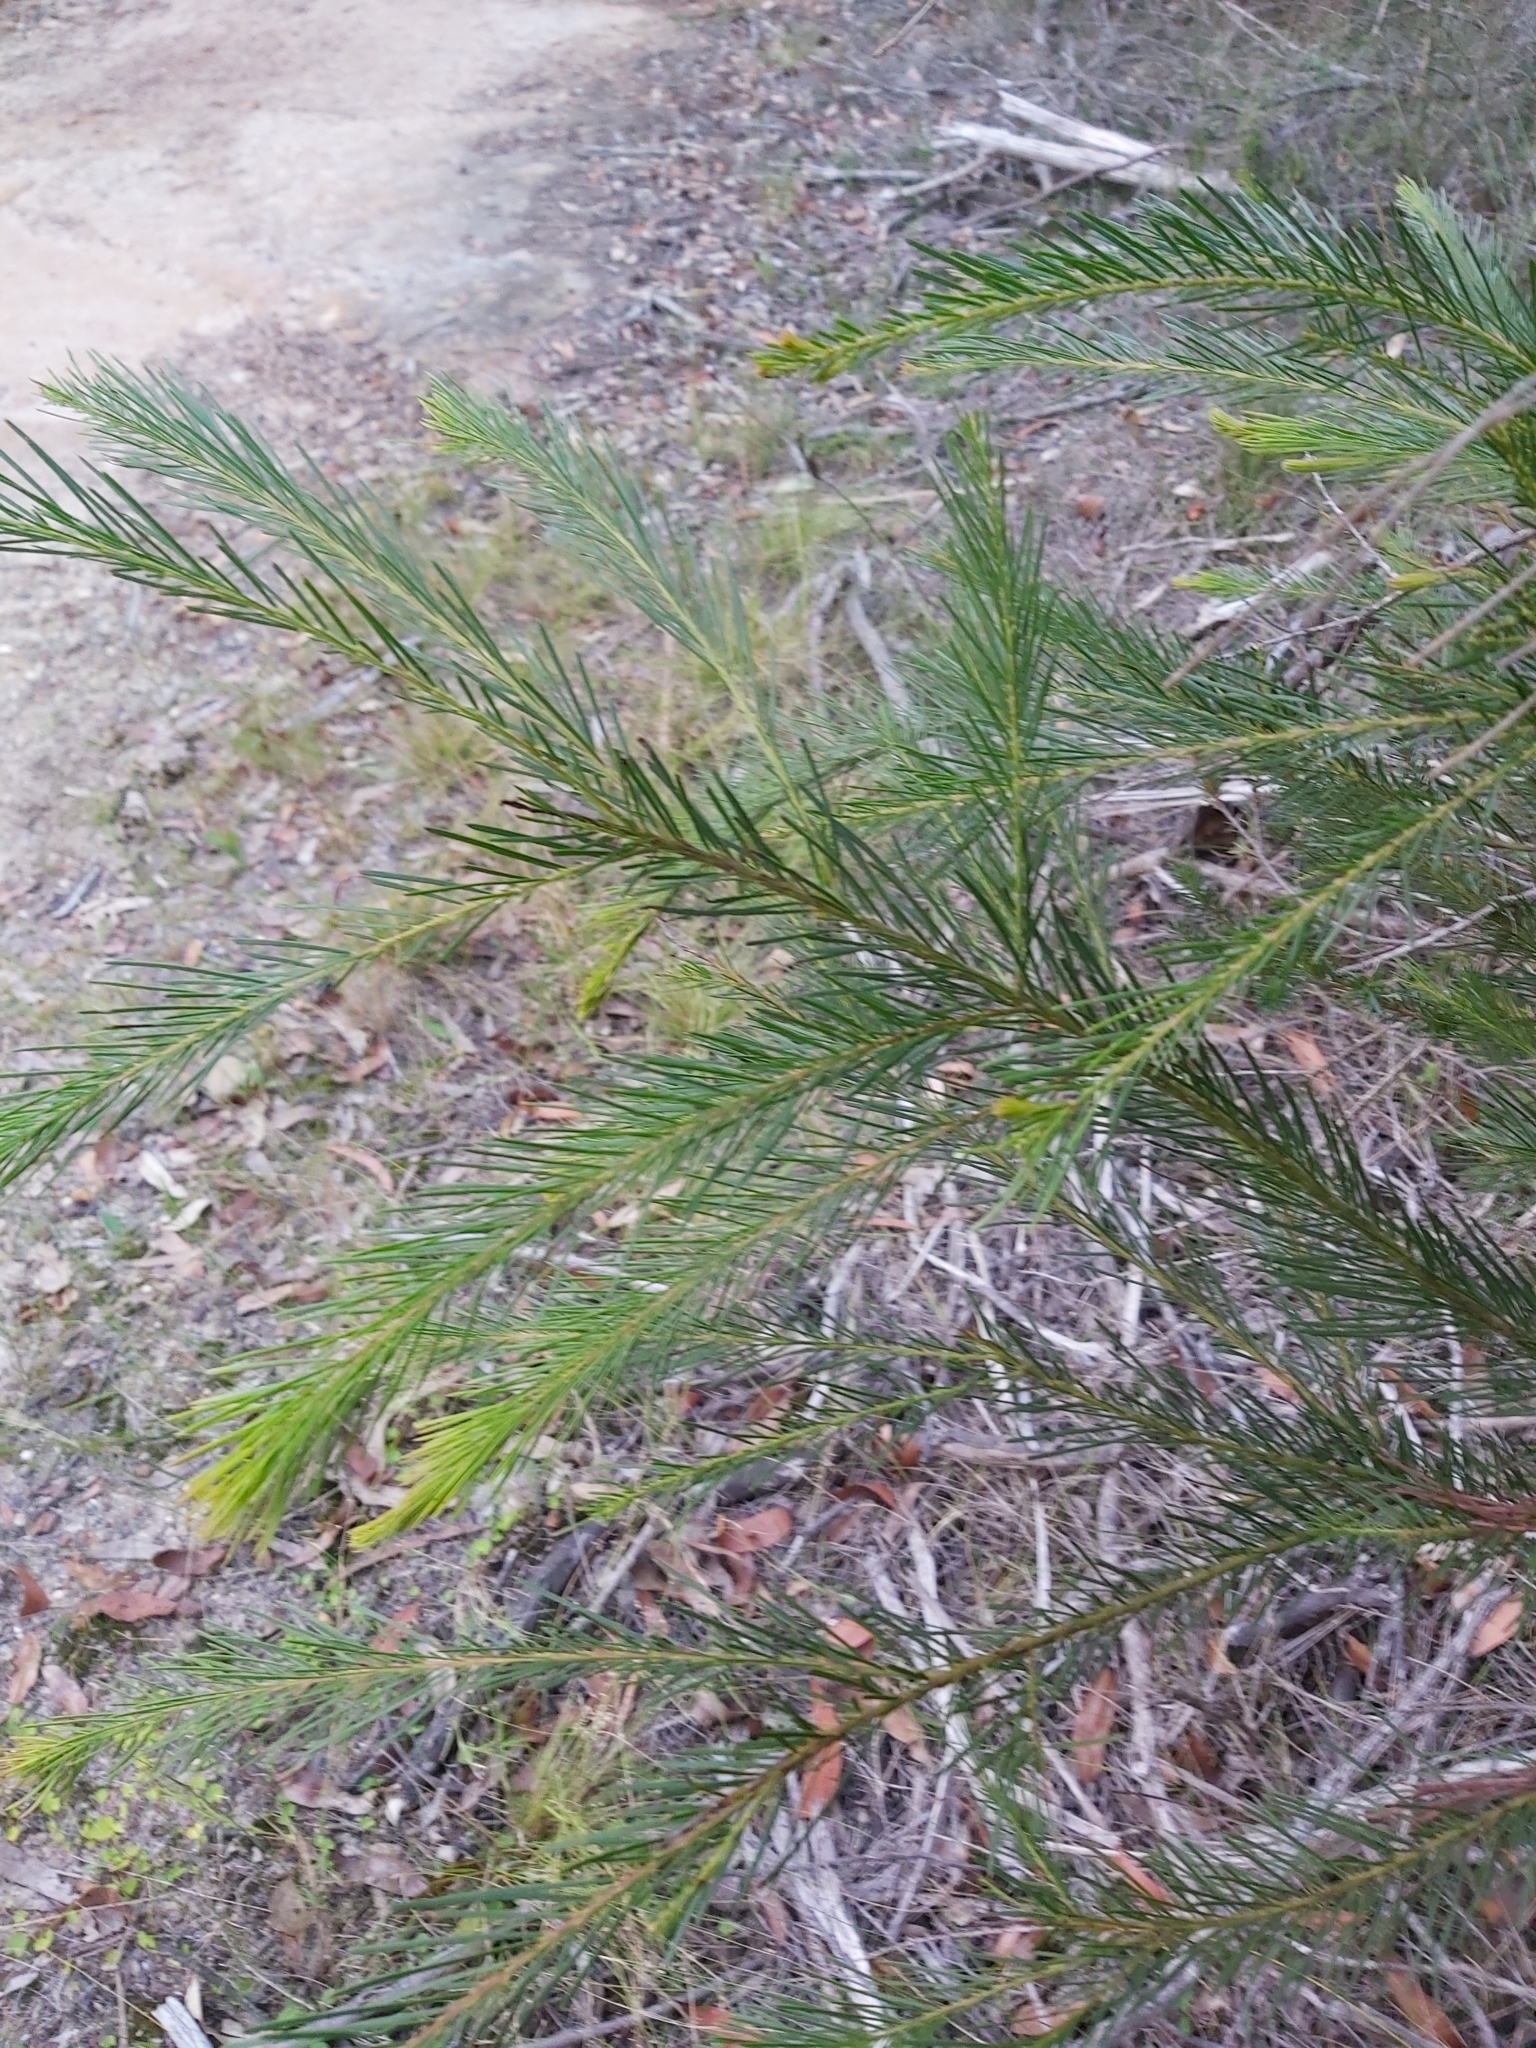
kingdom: Plantae
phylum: Tracheophyta
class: Magnoliopsida
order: Proteales
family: Proteaceae
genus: Banksia
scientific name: Banksia ericifolia
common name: Heath-leaf banksia
